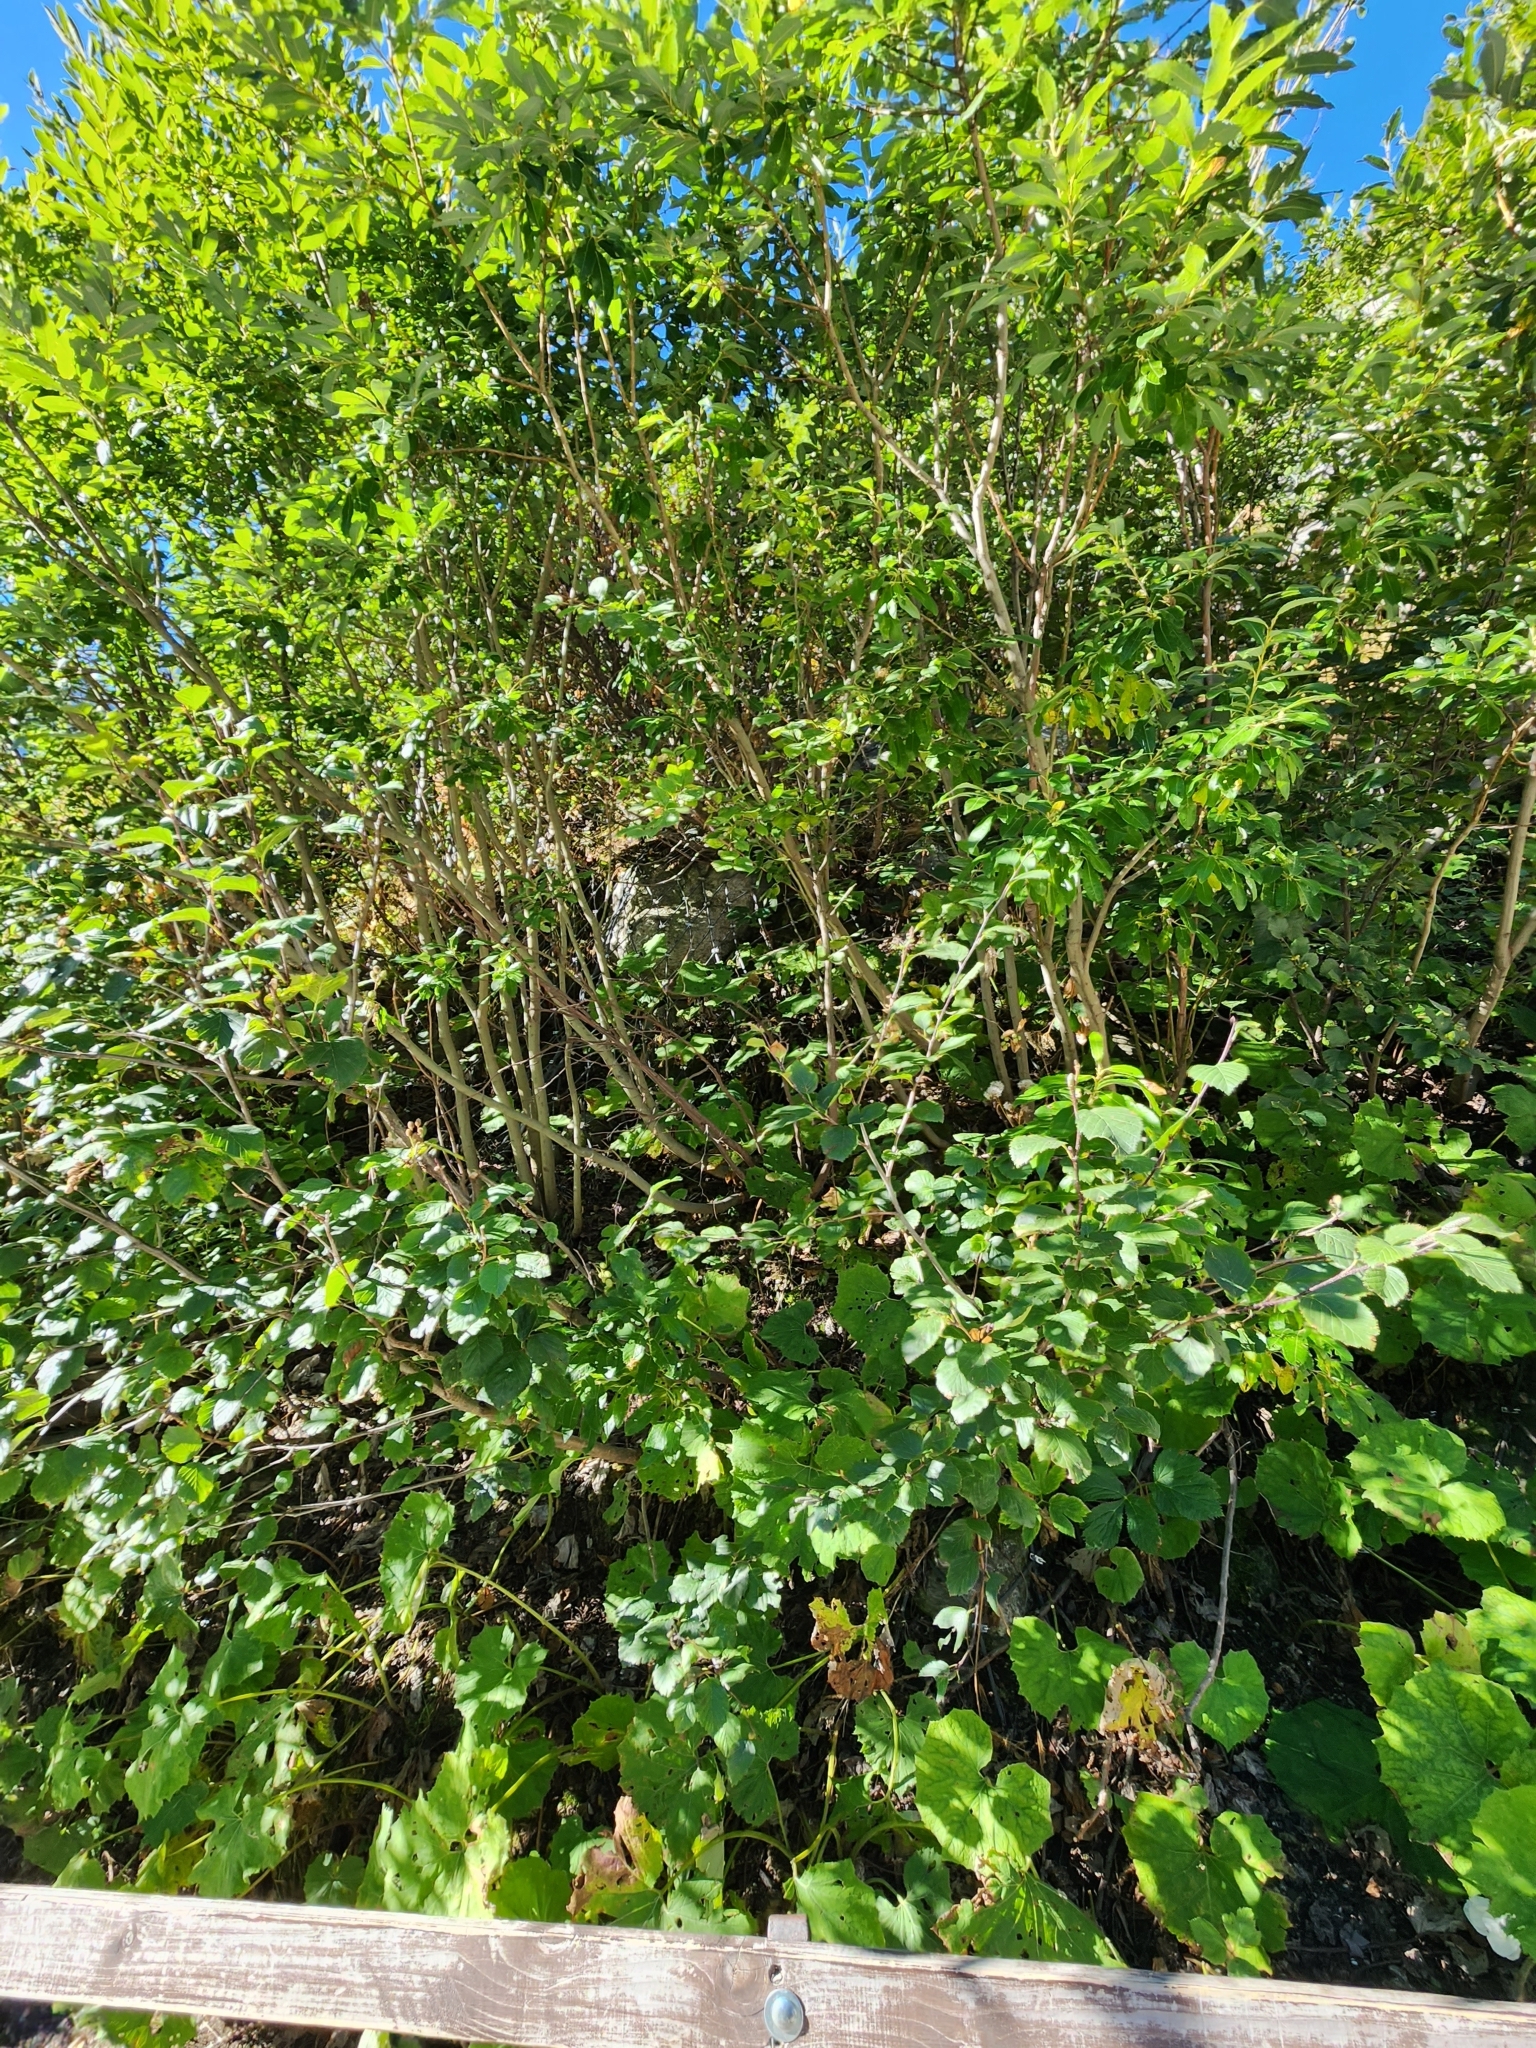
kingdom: Plantae
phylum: Tracheophyta
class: Magnoliopsida
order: Fagales
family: Betulaceae
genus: Alnus
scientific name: Alnus alnobetula
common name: Green alder
